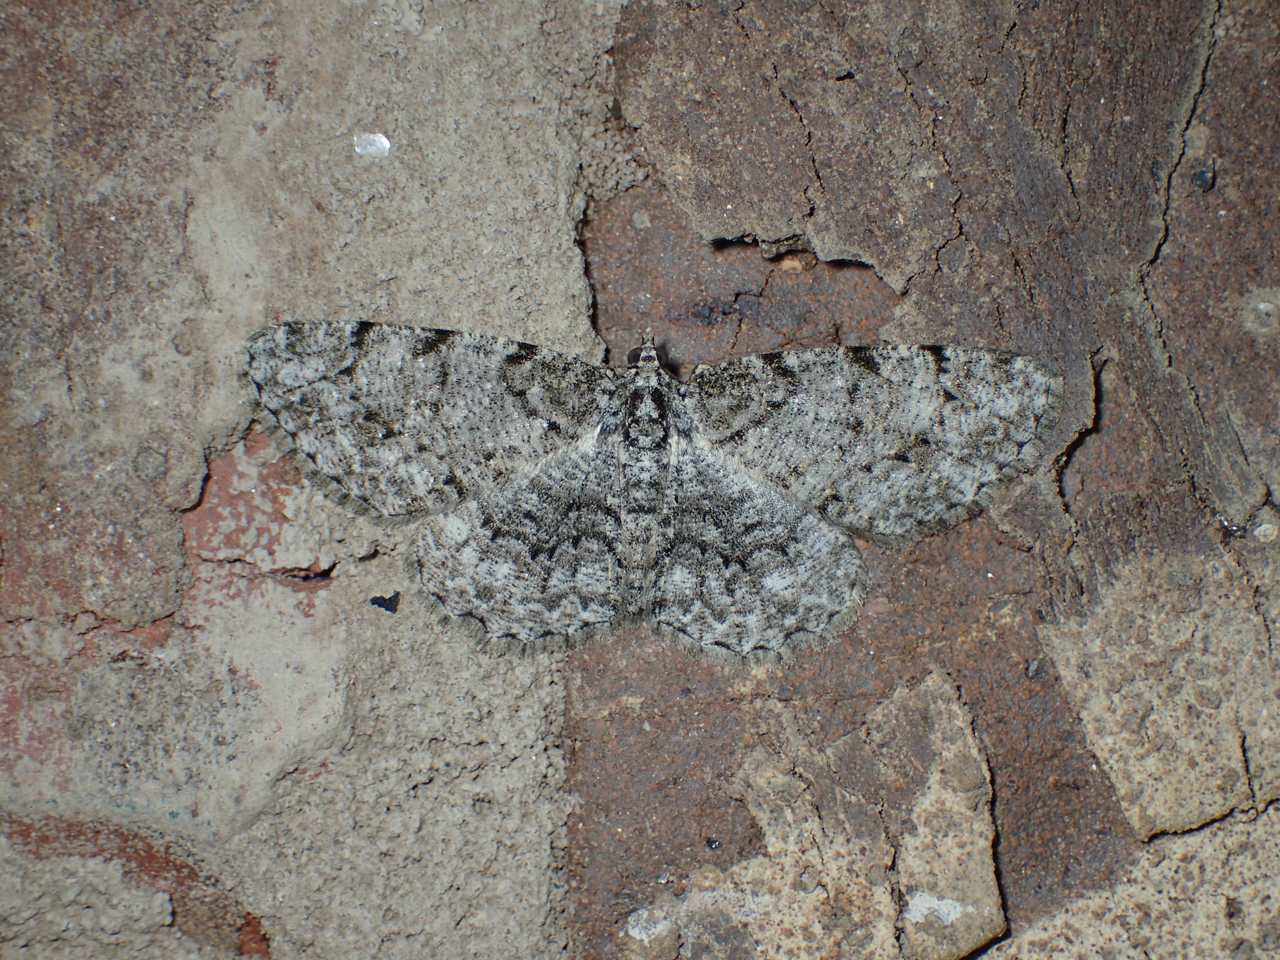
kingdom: Animalia
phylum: Arthropoda
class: Insecta
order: Lepidoptera
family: Geometridae
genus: Protoboarmia
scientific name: Protoboarmia porcelaria
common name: Porcelain gray
